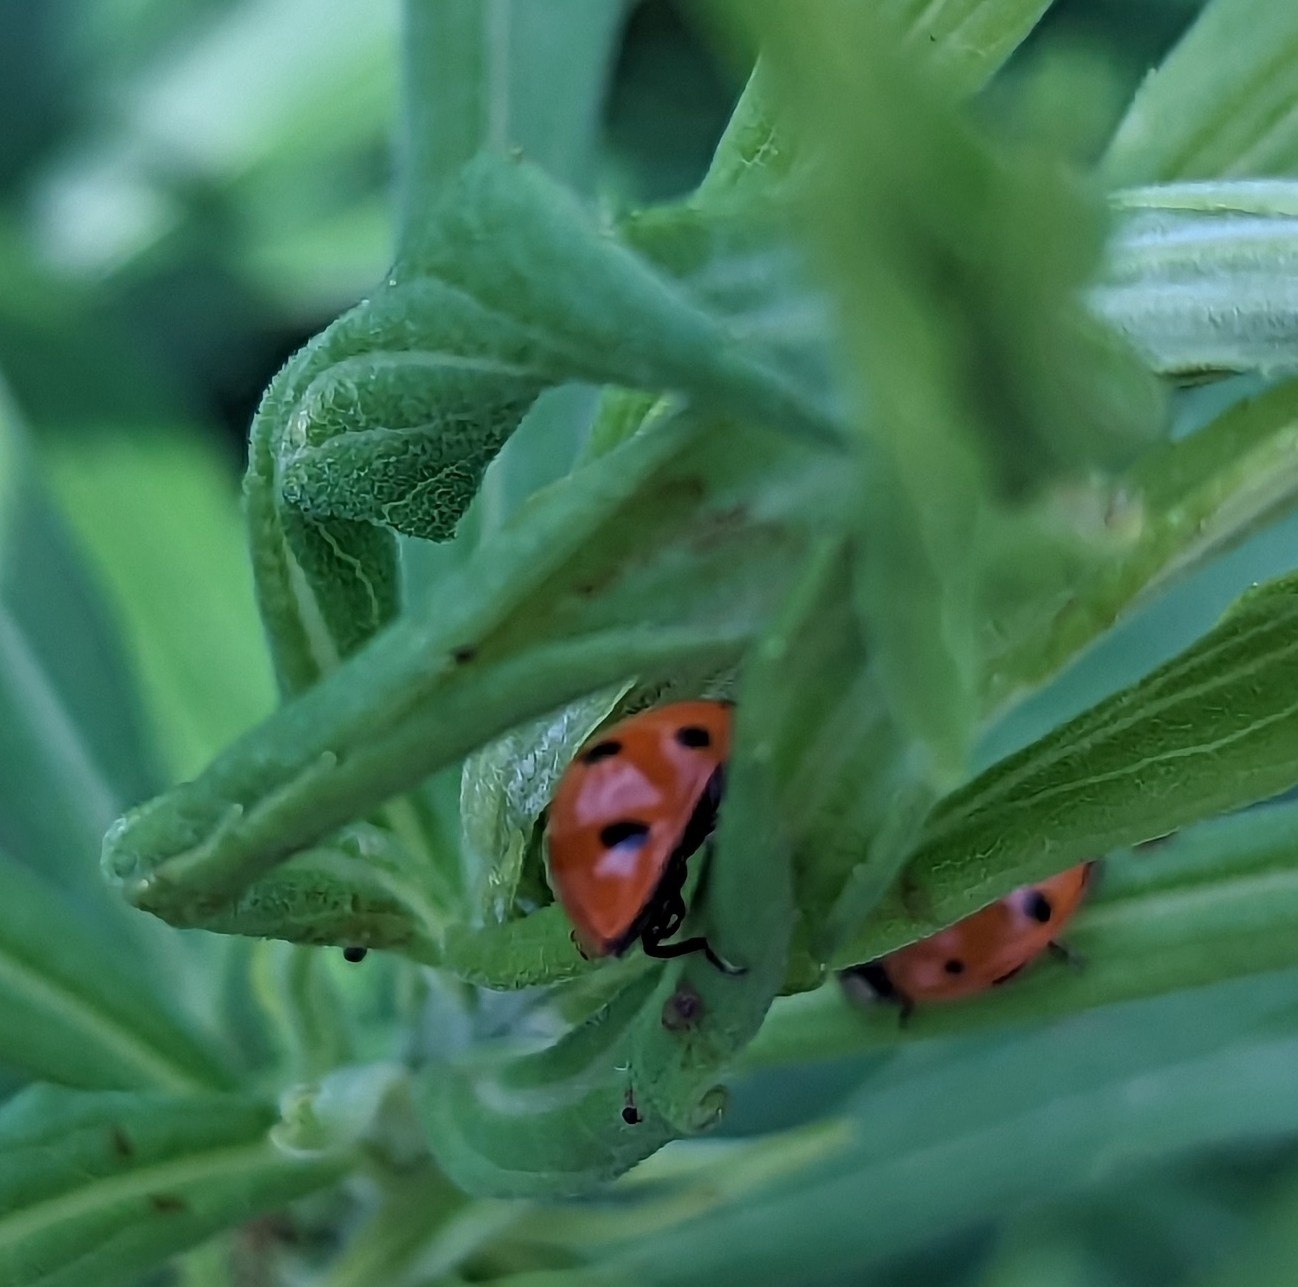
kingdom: Animalia
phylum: Arthropoda
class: Insecta
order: Coleoptera
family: Coccinellidae
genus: Coccinella
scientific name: Coccinella septempunctata
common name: Sevenspotted lady beetle
